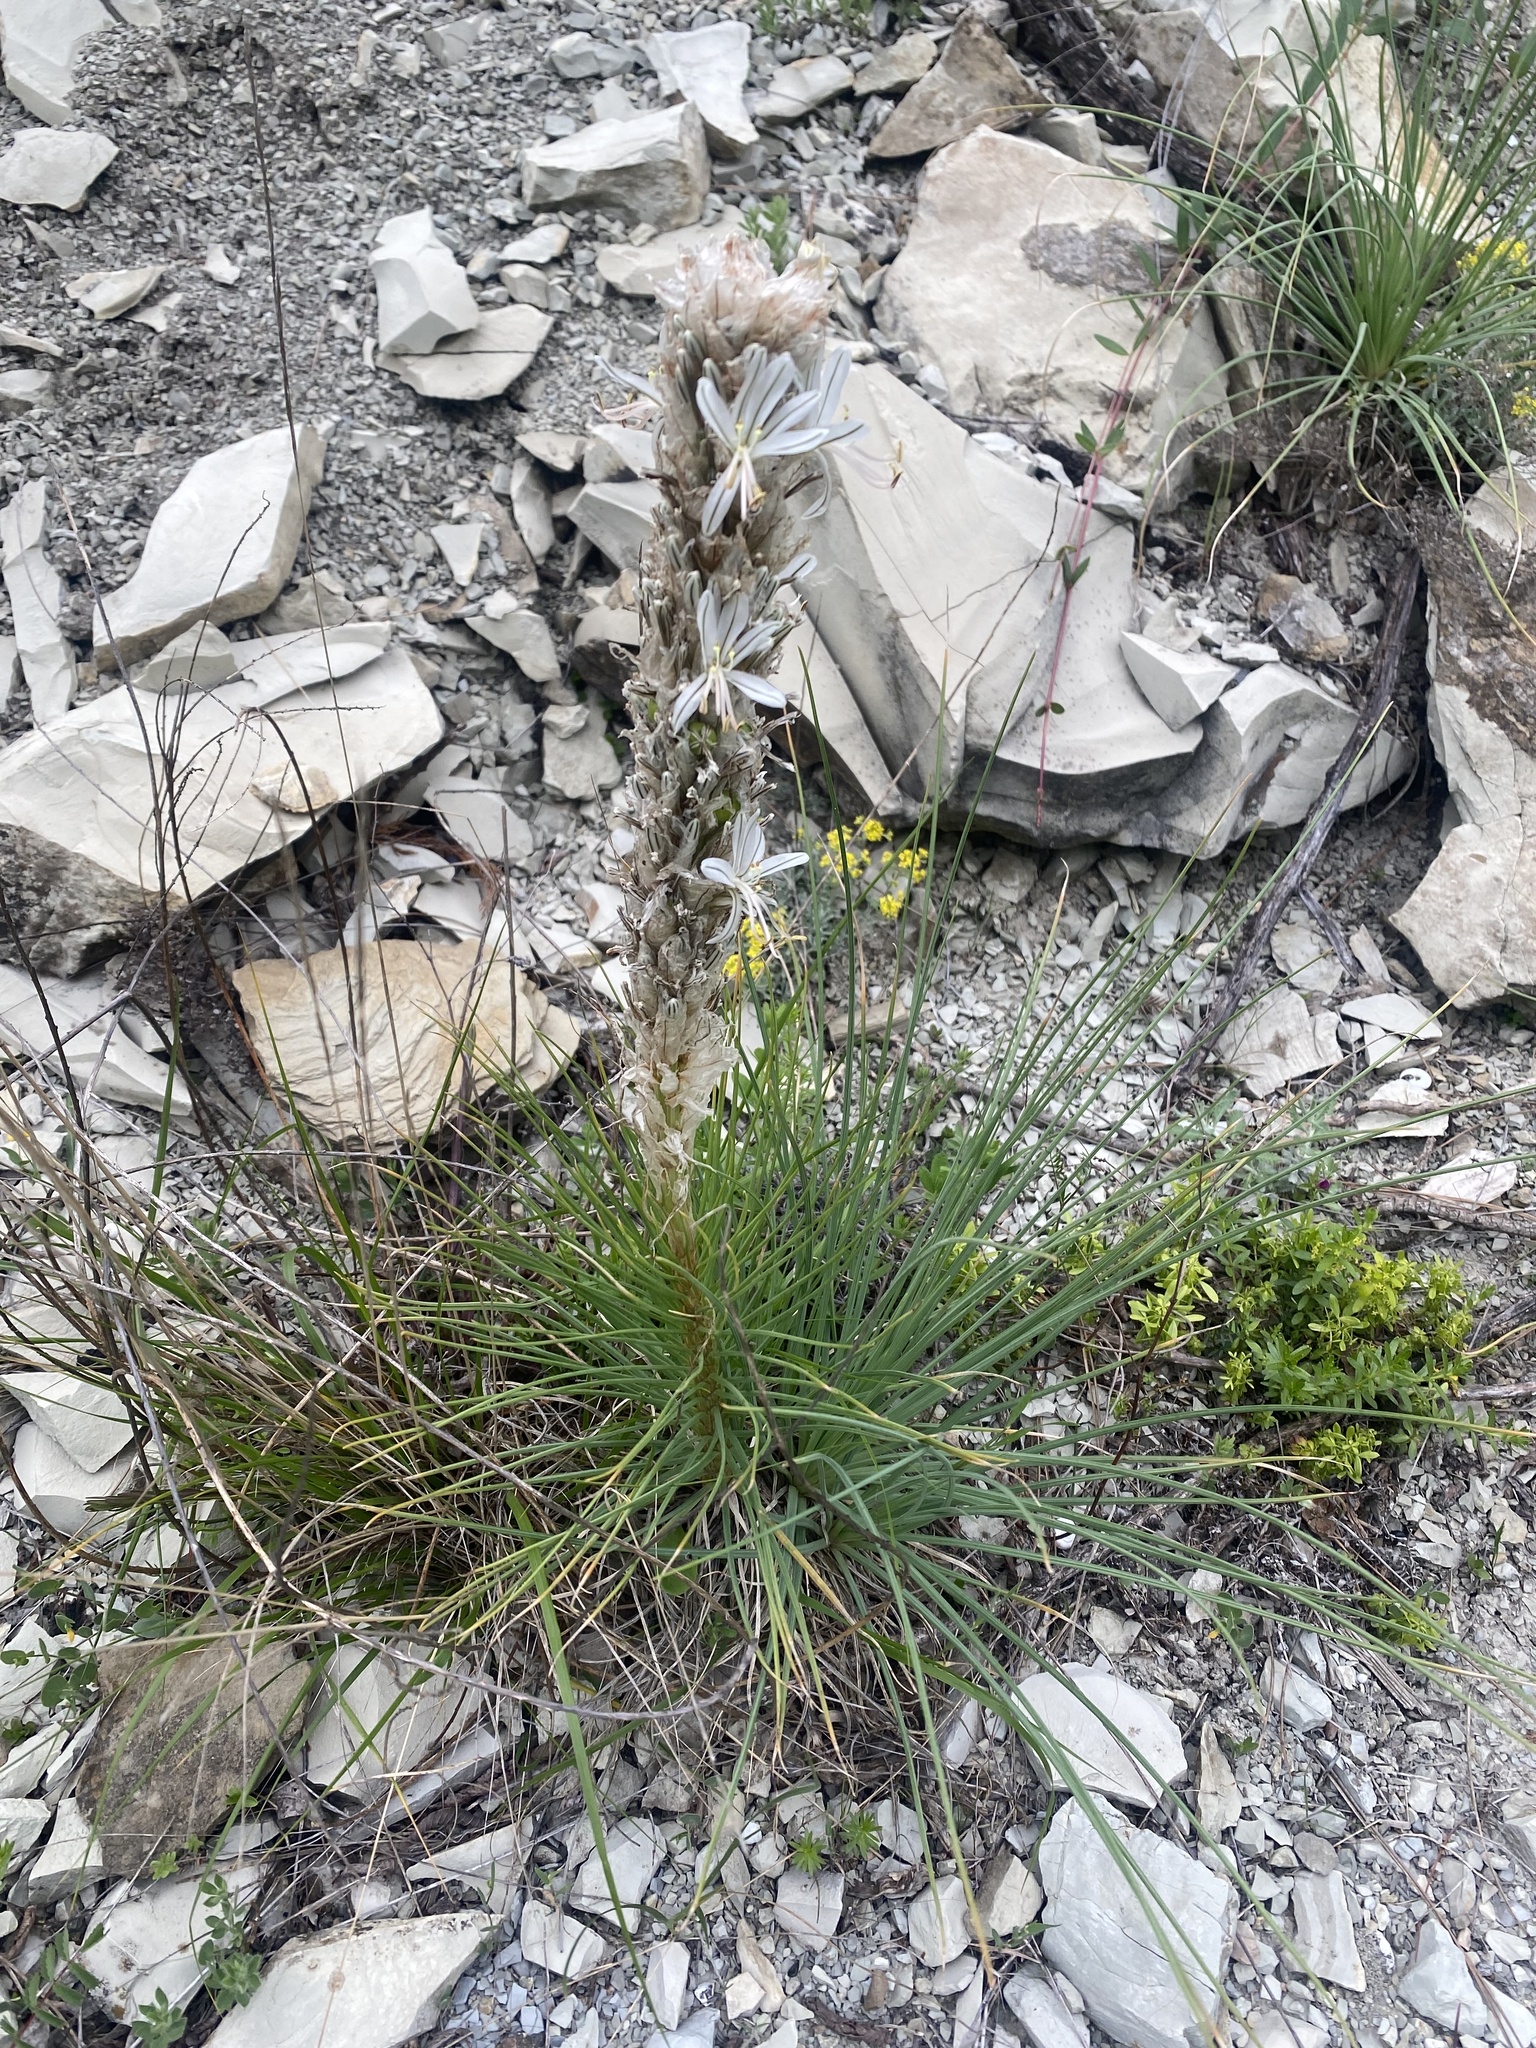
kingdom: Plantae
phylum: Tracheophyta
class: Liliopsida
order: Asparagales
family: Asphodelaceae
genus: Asphodeline
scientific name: Asphodeline taurica
